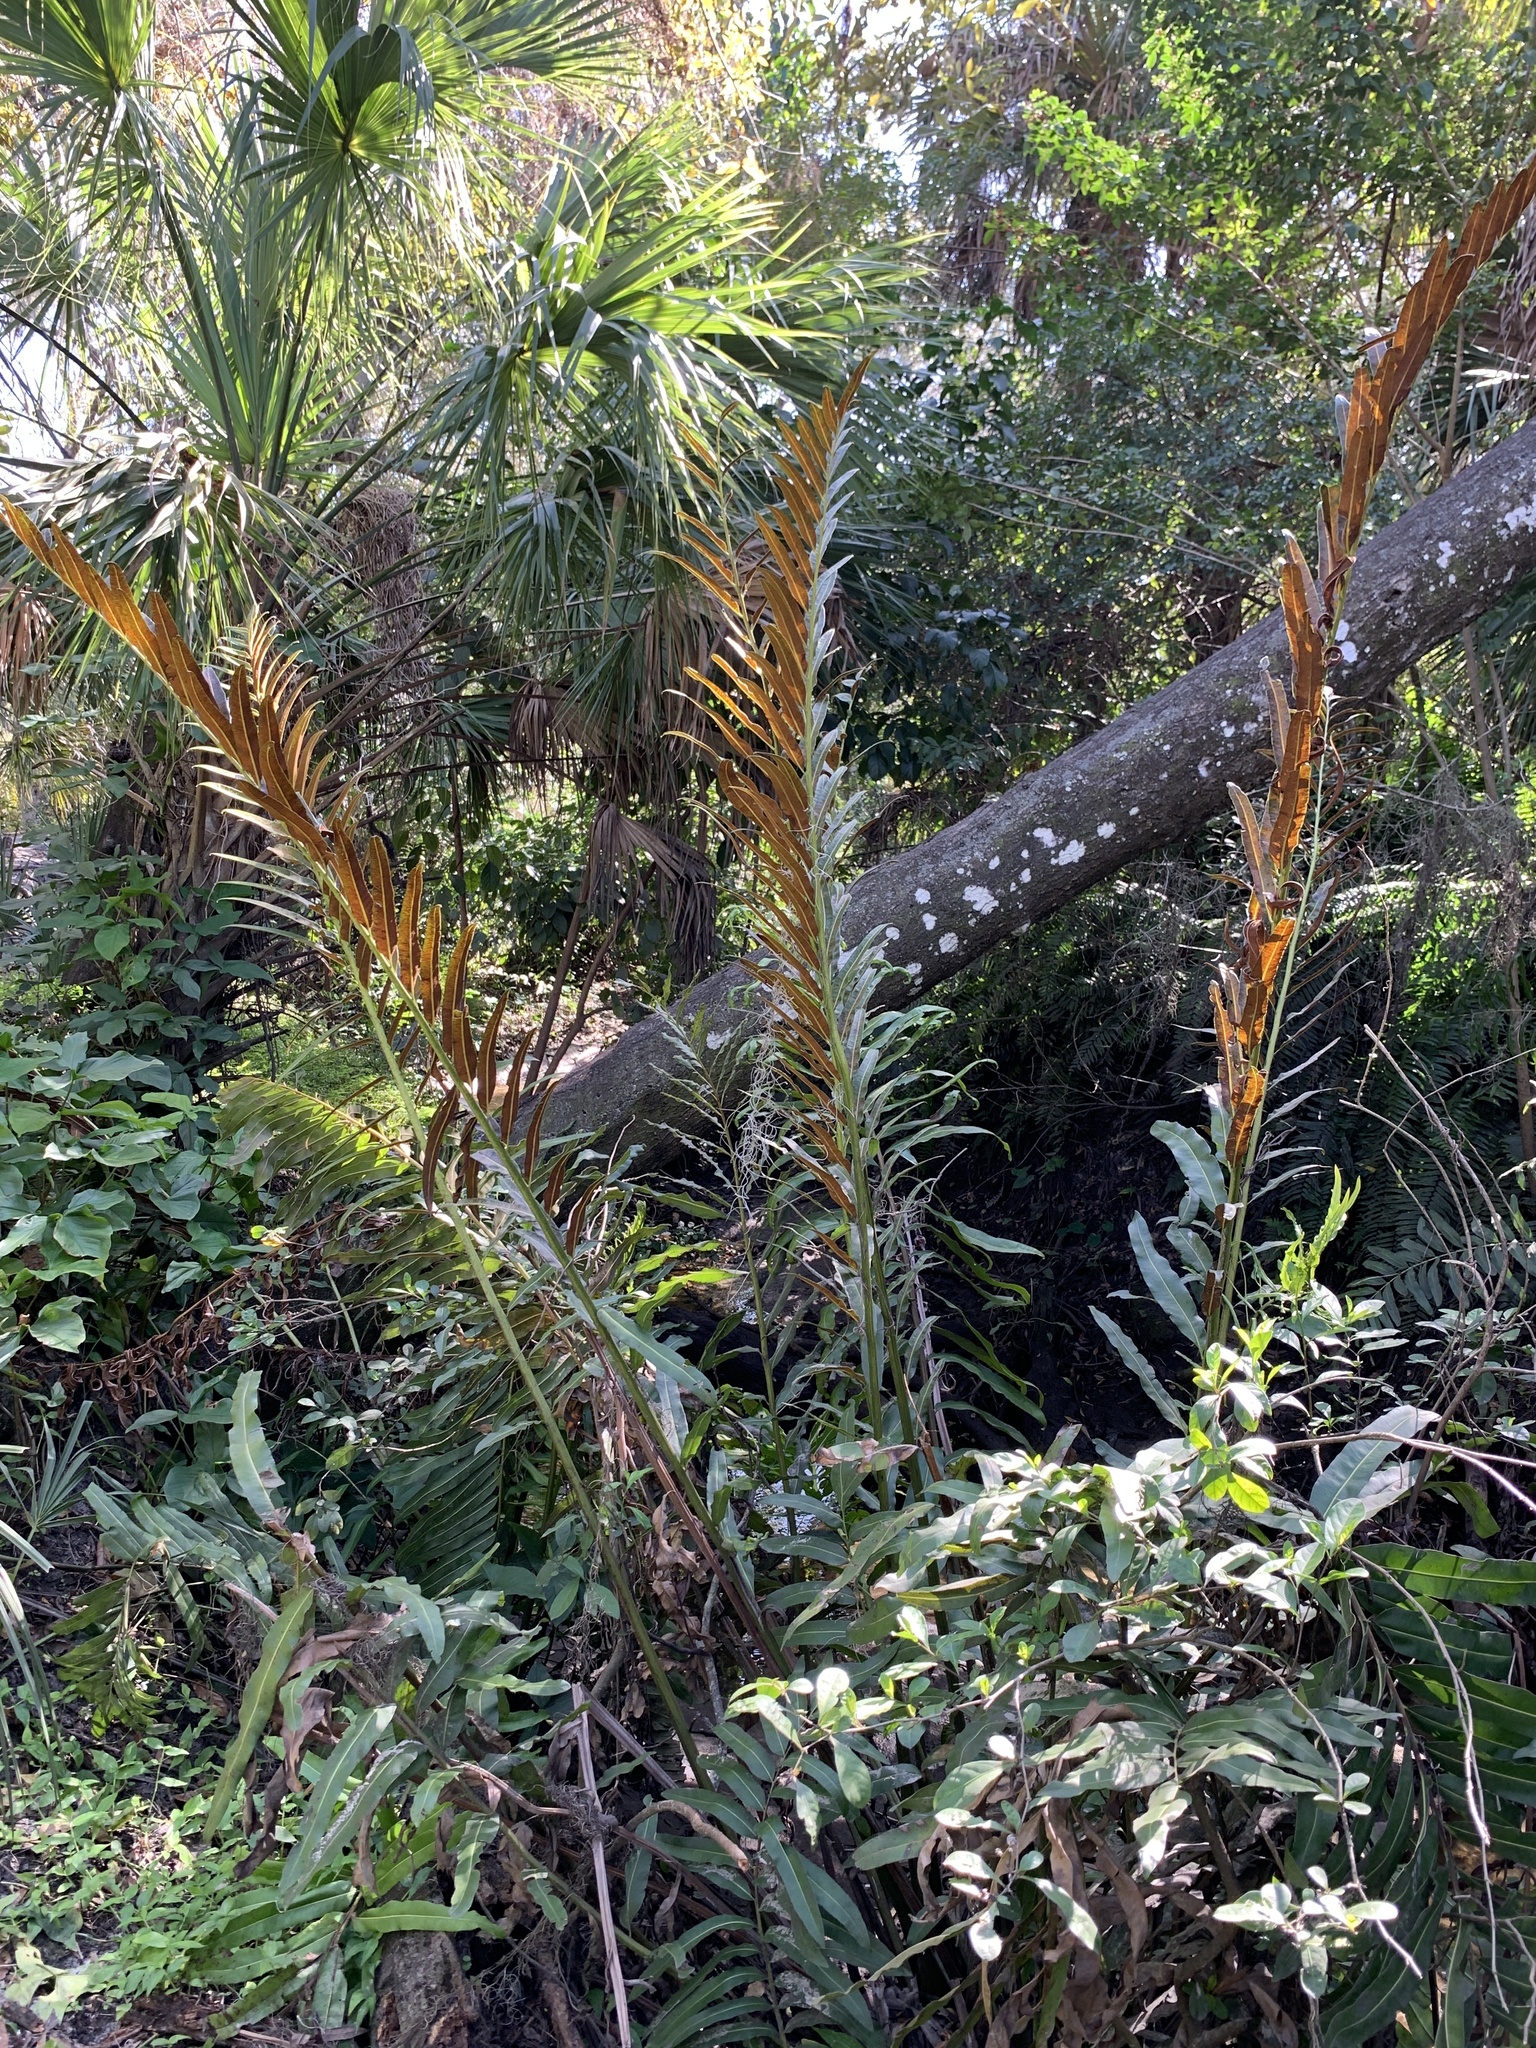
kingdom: Plantae
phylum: Tracheophyta
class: Polypodiopsida
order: Polypodiales
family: Pteridaceae
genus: Acrostichum
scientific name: Acrostichum danaeifolium
